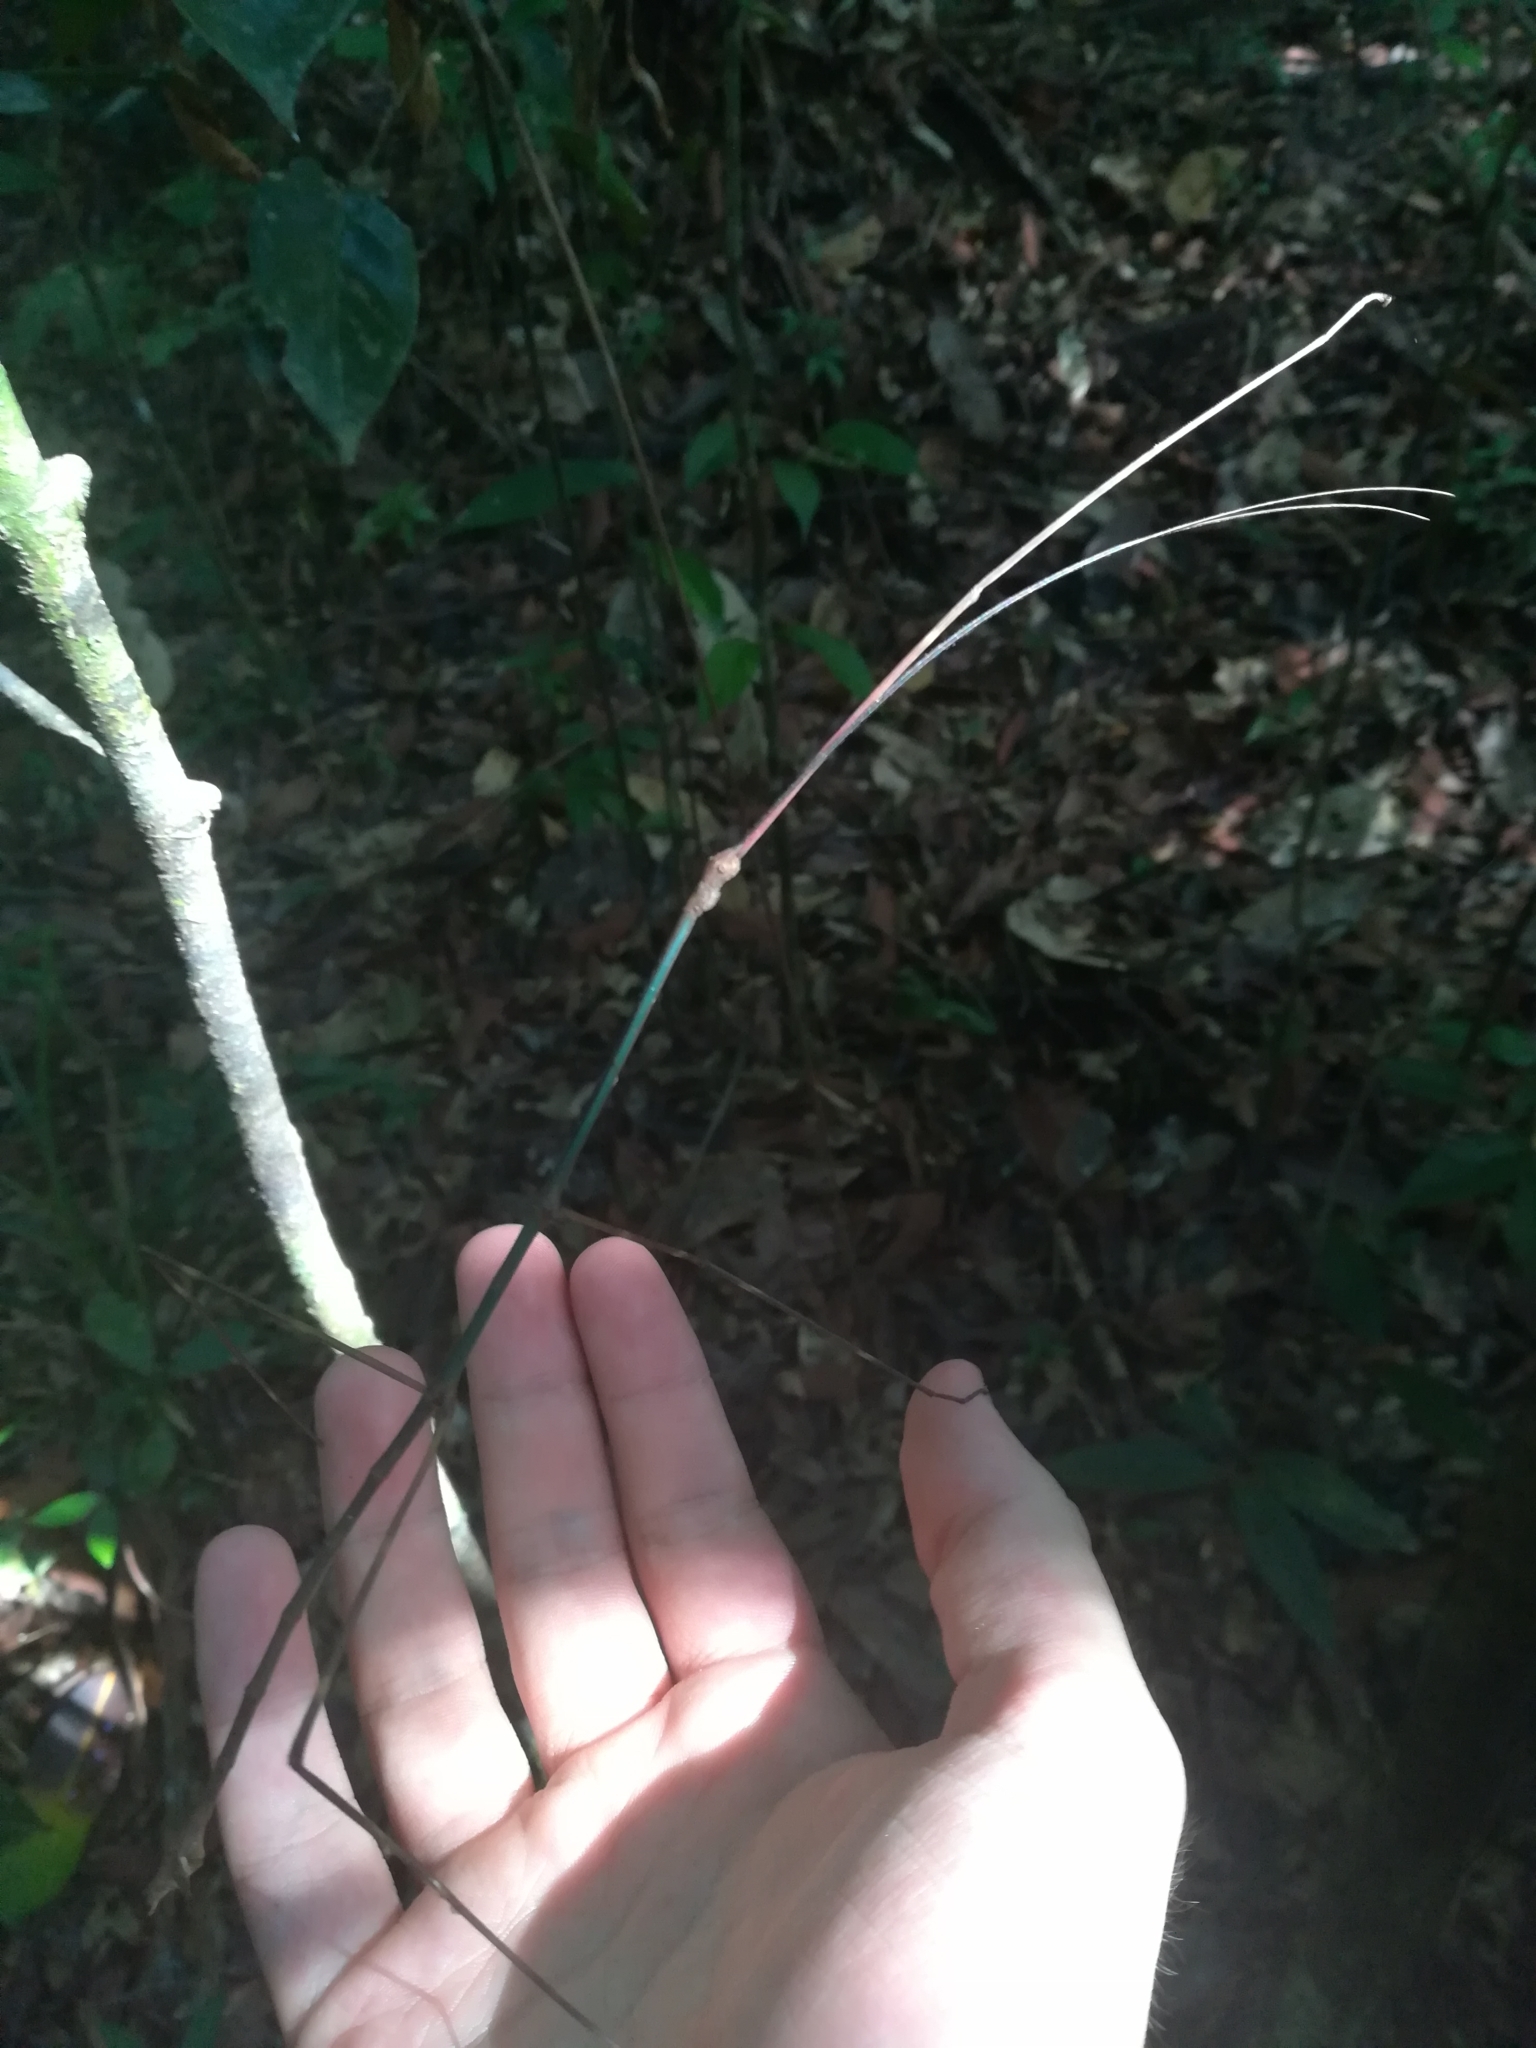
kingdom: Animalia
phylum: Arthropoda
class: Insecta
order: Phasmida
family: Diapheromeridae
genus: Phanocloidea
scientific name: Phanocloidea muricata
